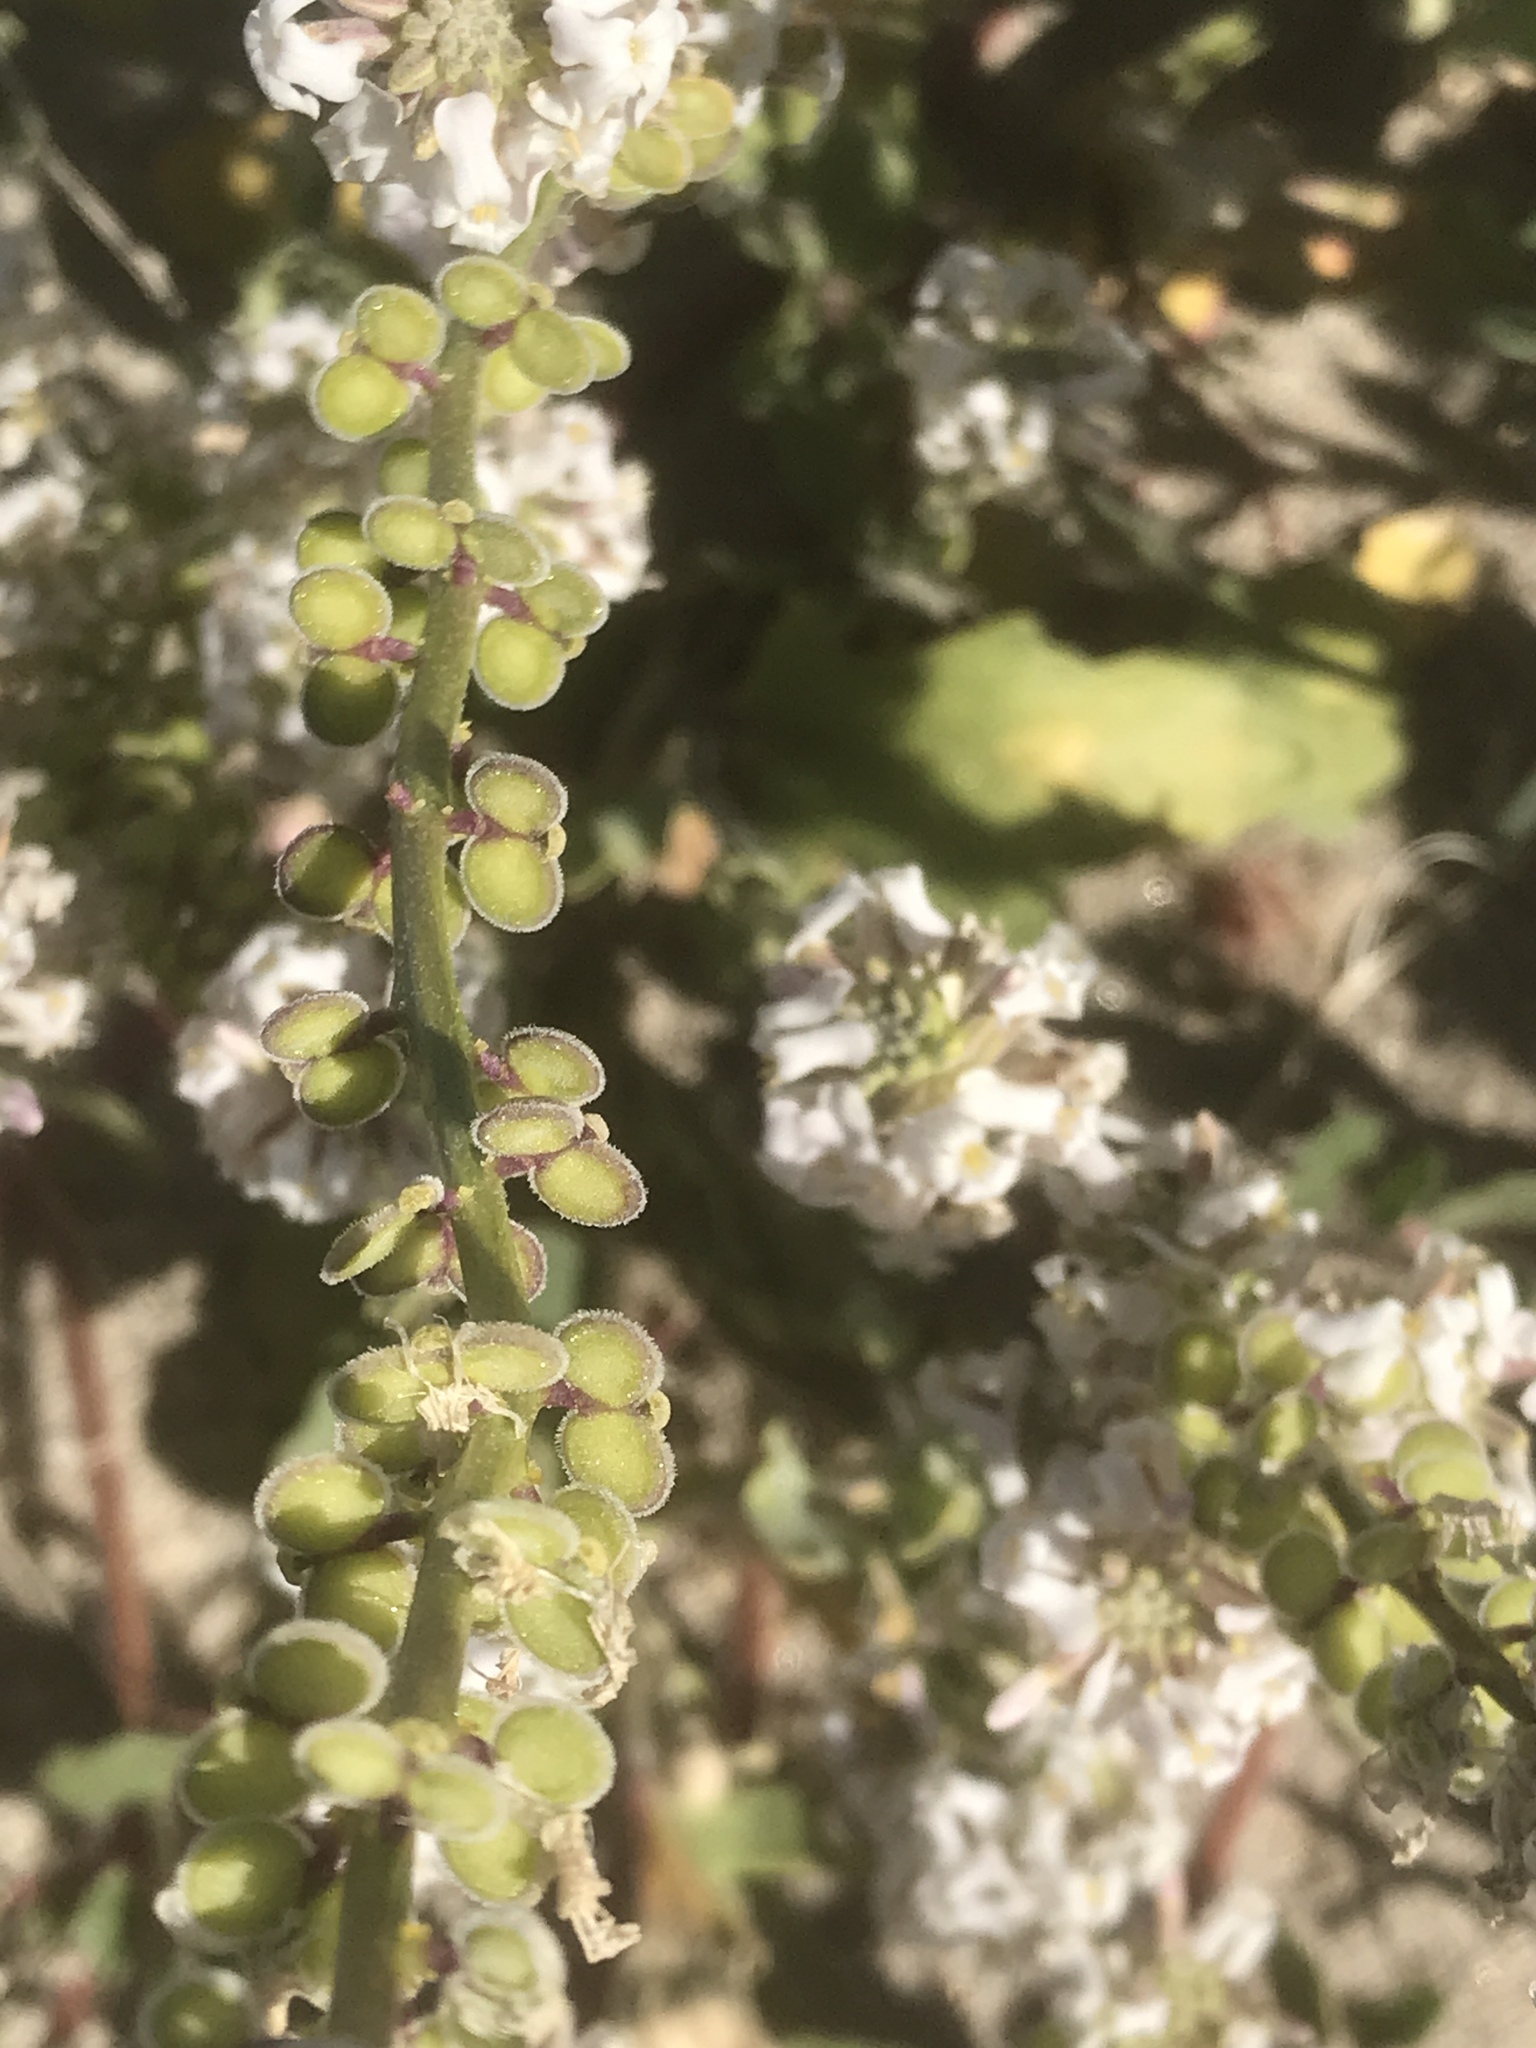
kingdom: Plantae
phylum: Tracheophyta
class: Magnoliopsida
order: Brassicales
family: Brassicaceae
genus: Dithyrea
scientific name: Dithyrea californica
